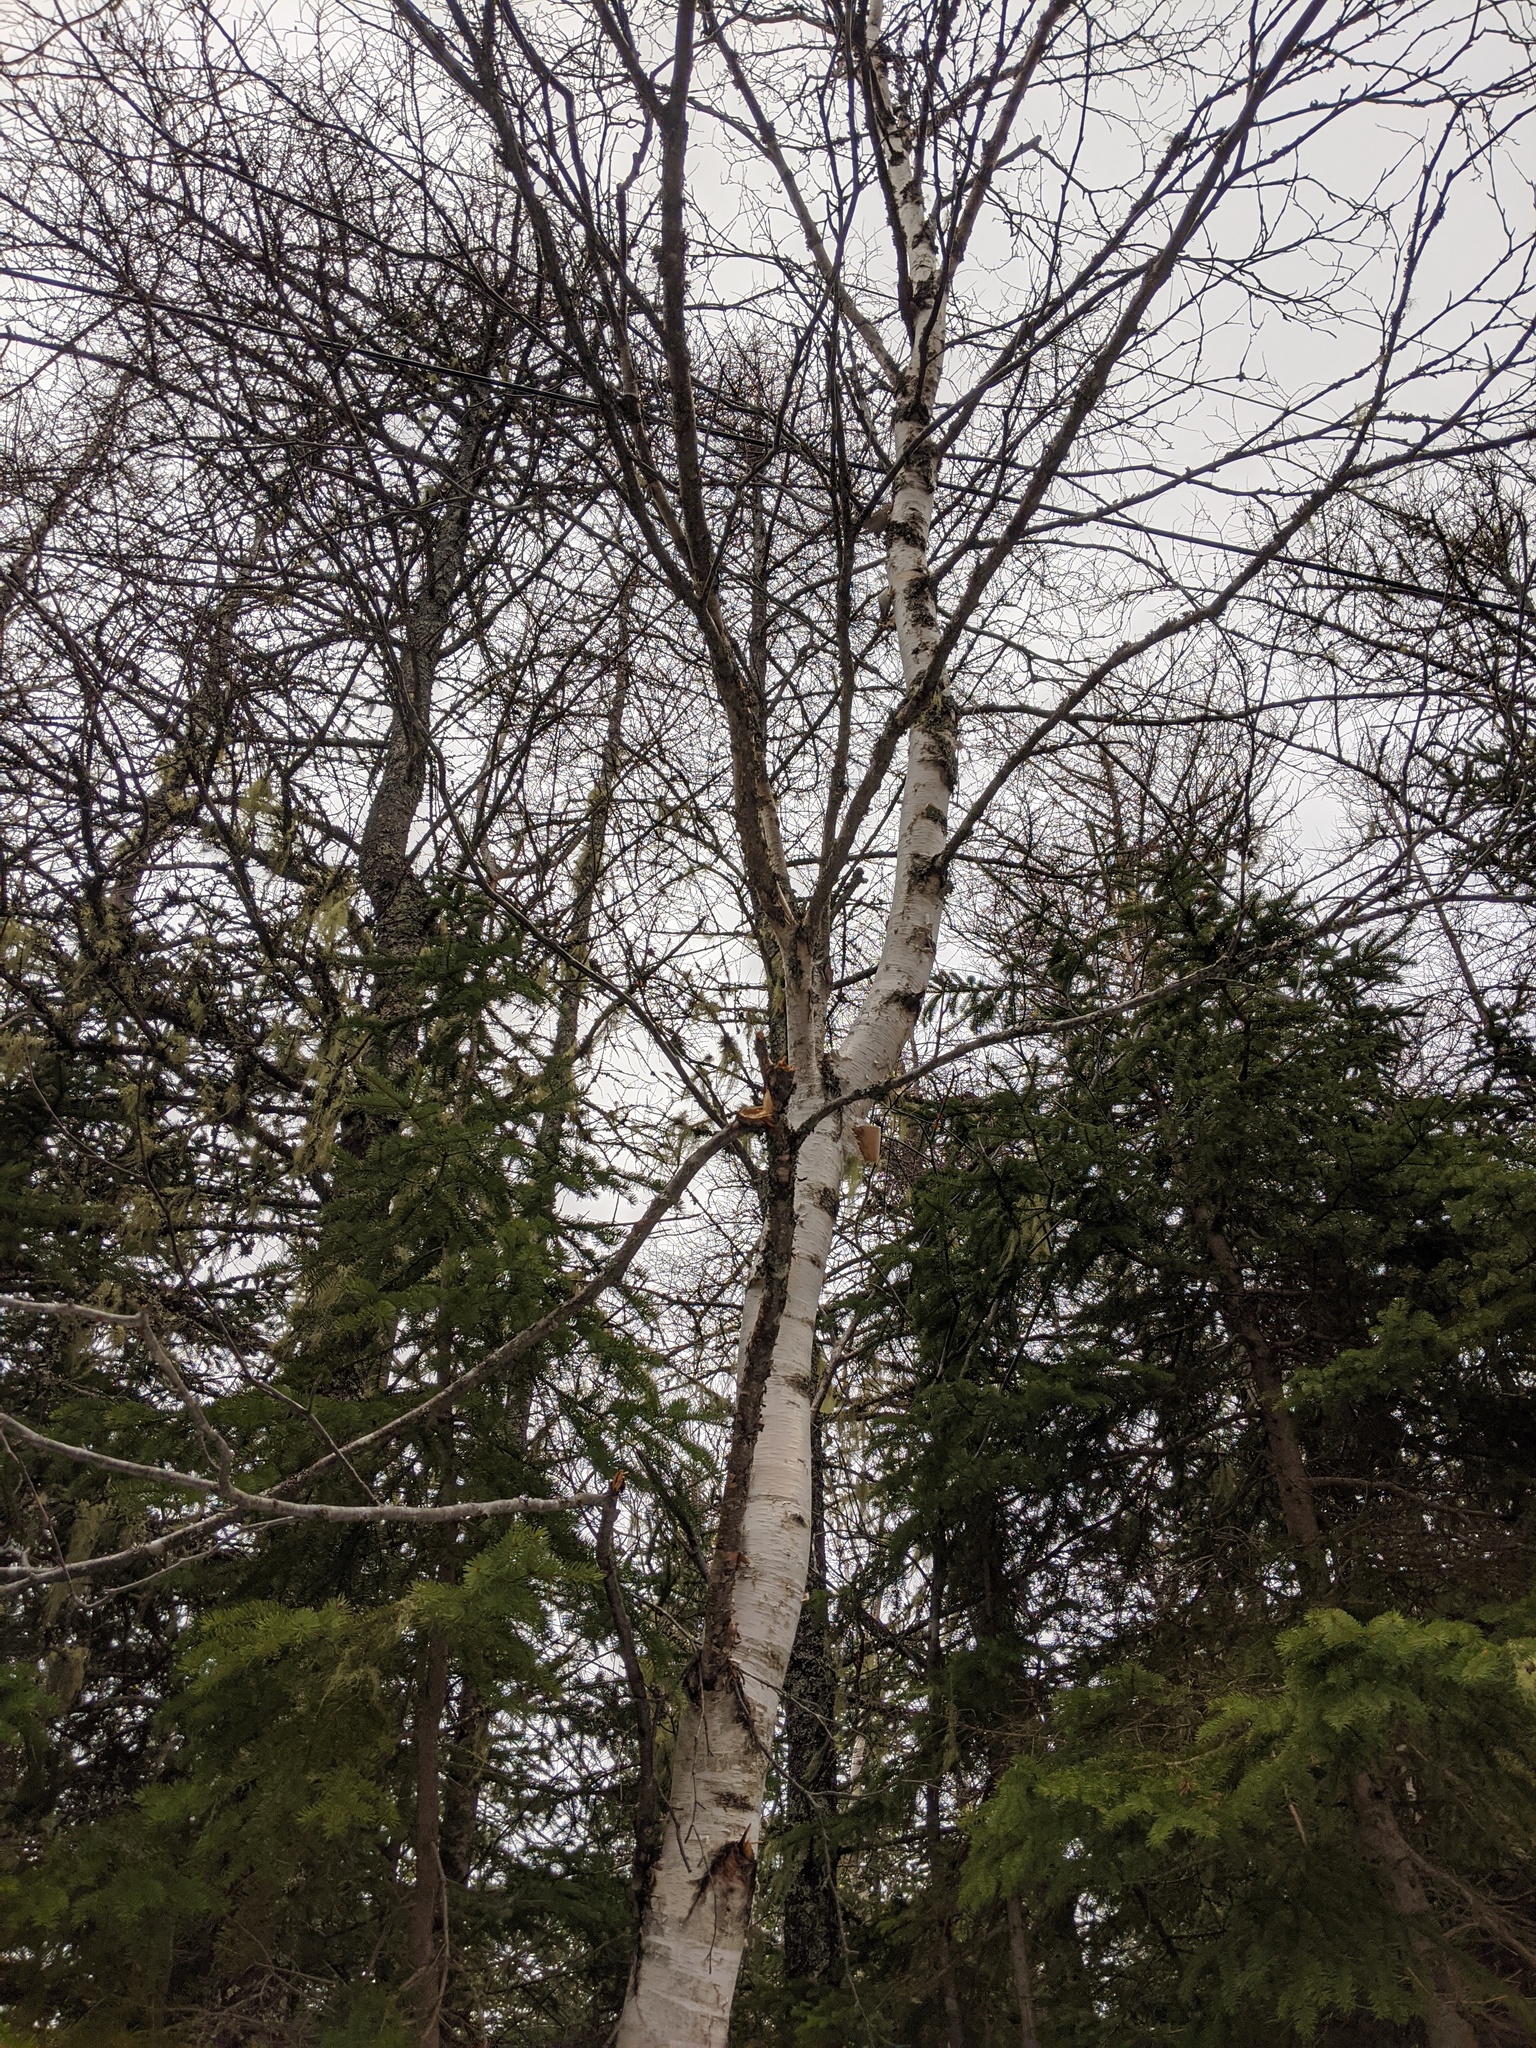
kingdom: Plantae
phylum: Tracheophyta
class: Magnoliopsida
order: Fagales
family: Betulaceae
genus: Betula
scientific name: Betula papyrifera
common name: Paper birch
